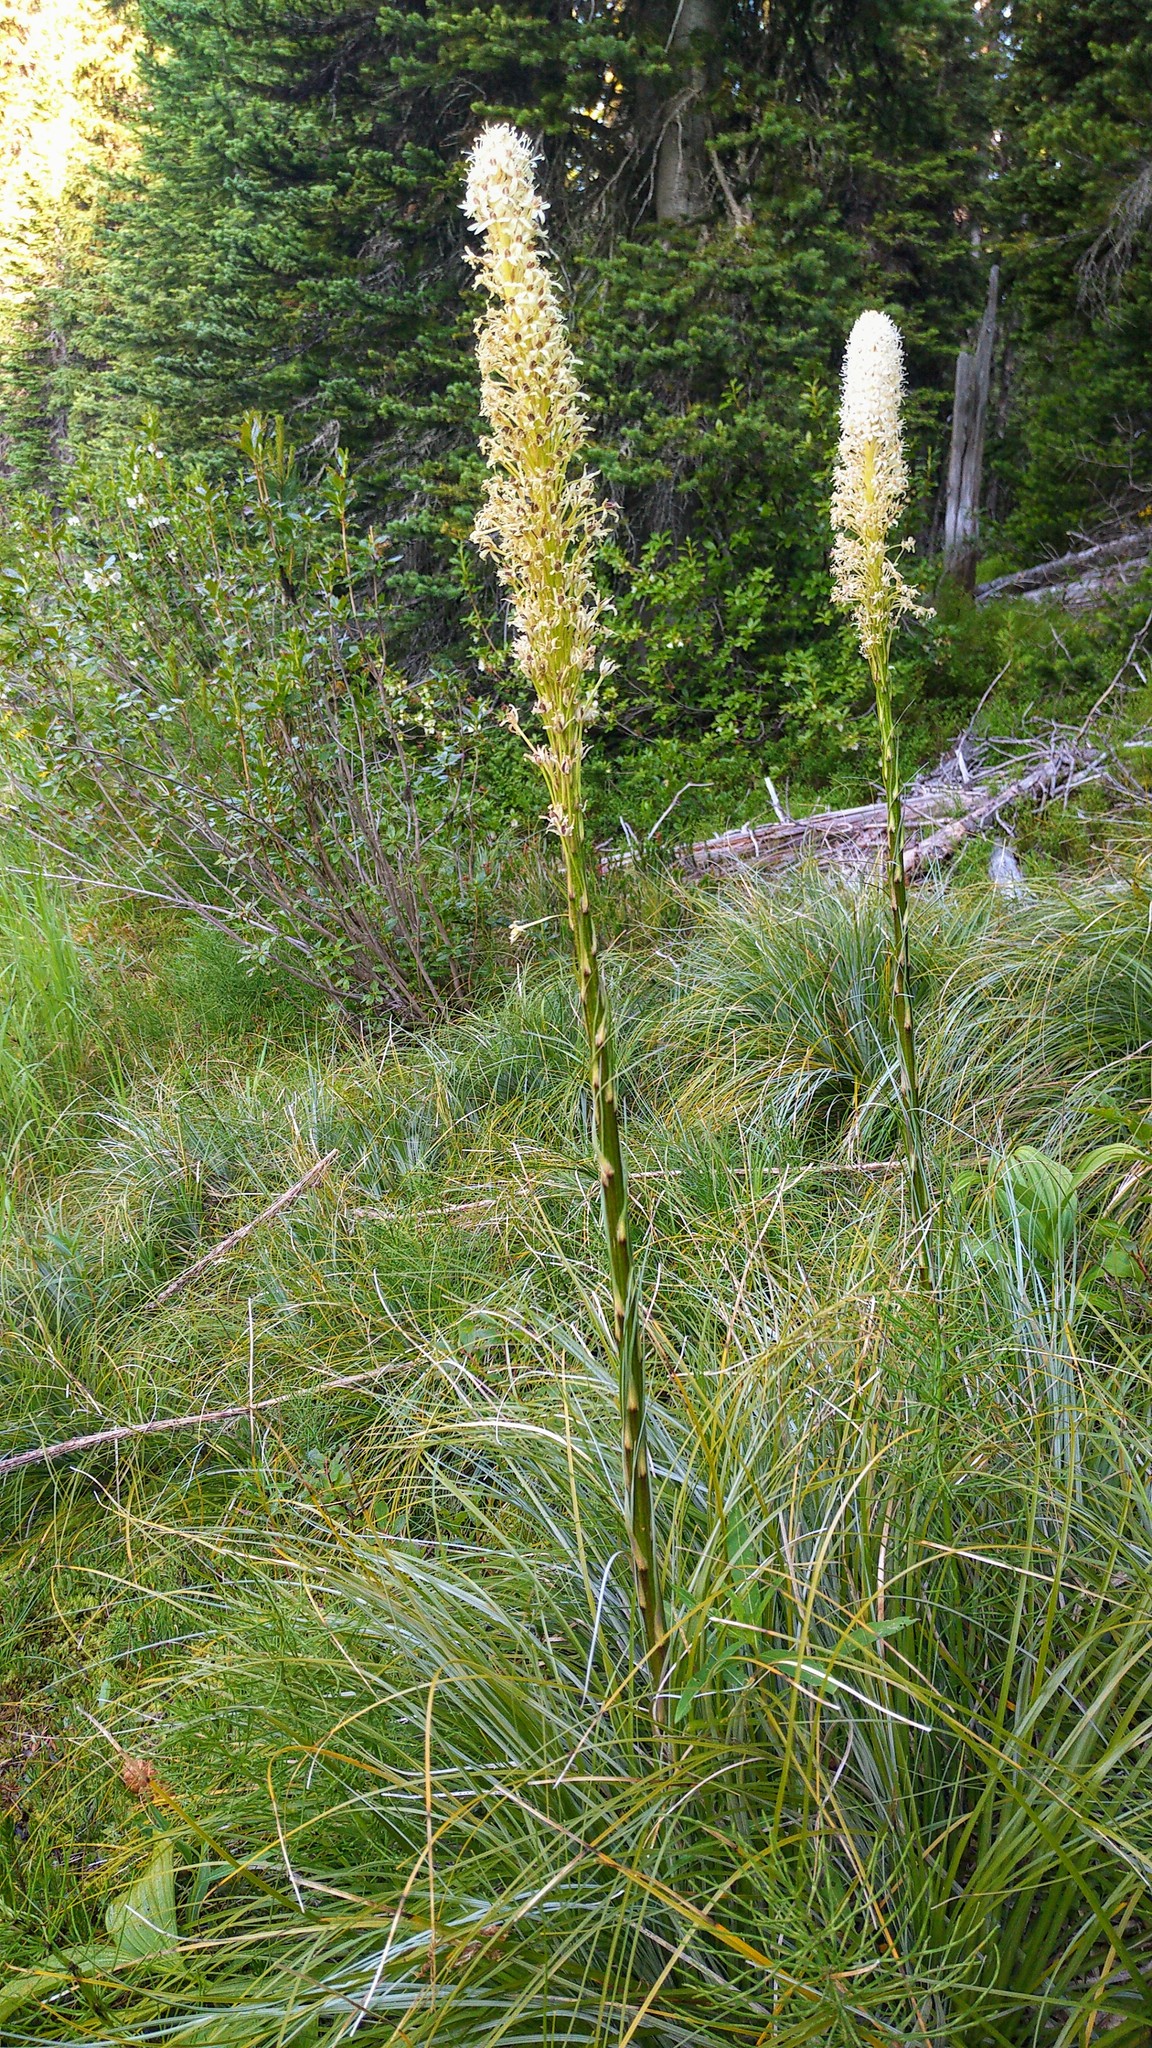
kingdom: Plantae
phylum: Tracheophyta
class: Liliopsida
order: Liliales
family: Melanthiaceae
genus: Xerophyllum
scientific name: Xerophyllum tenax
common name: Bear-grass
